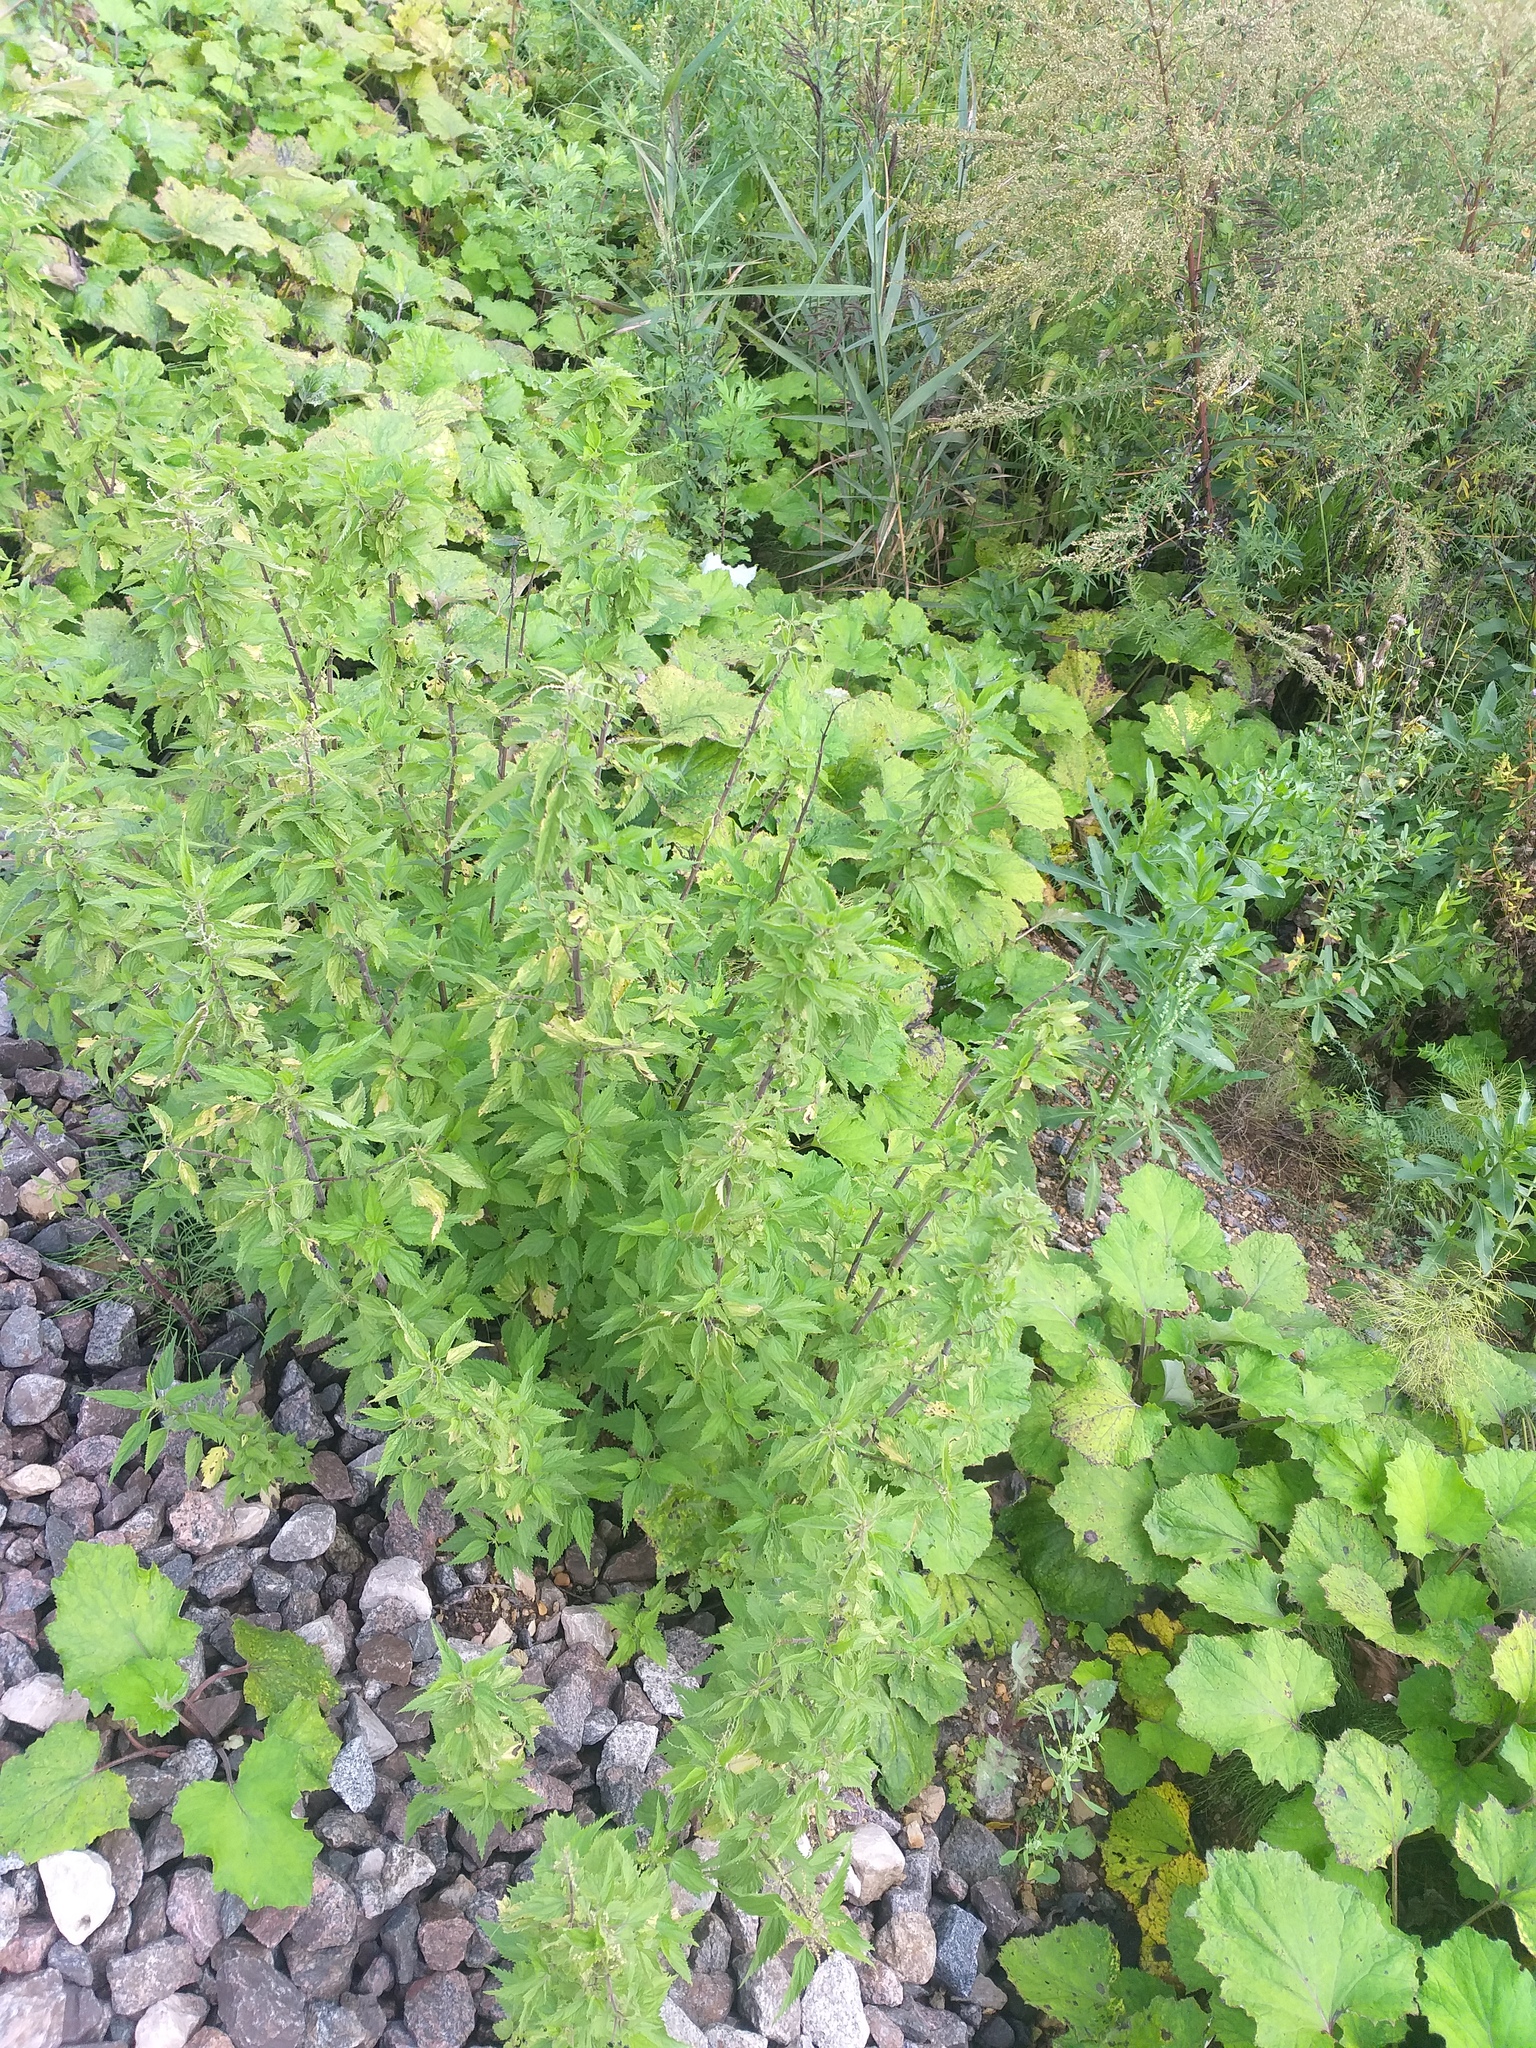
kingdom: Plantae
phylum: Tracheophyta
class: Magnoliopsida
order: Rosales
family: Urticaceae
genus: Urtica
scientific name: Urtica dioica
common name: Common nettle
